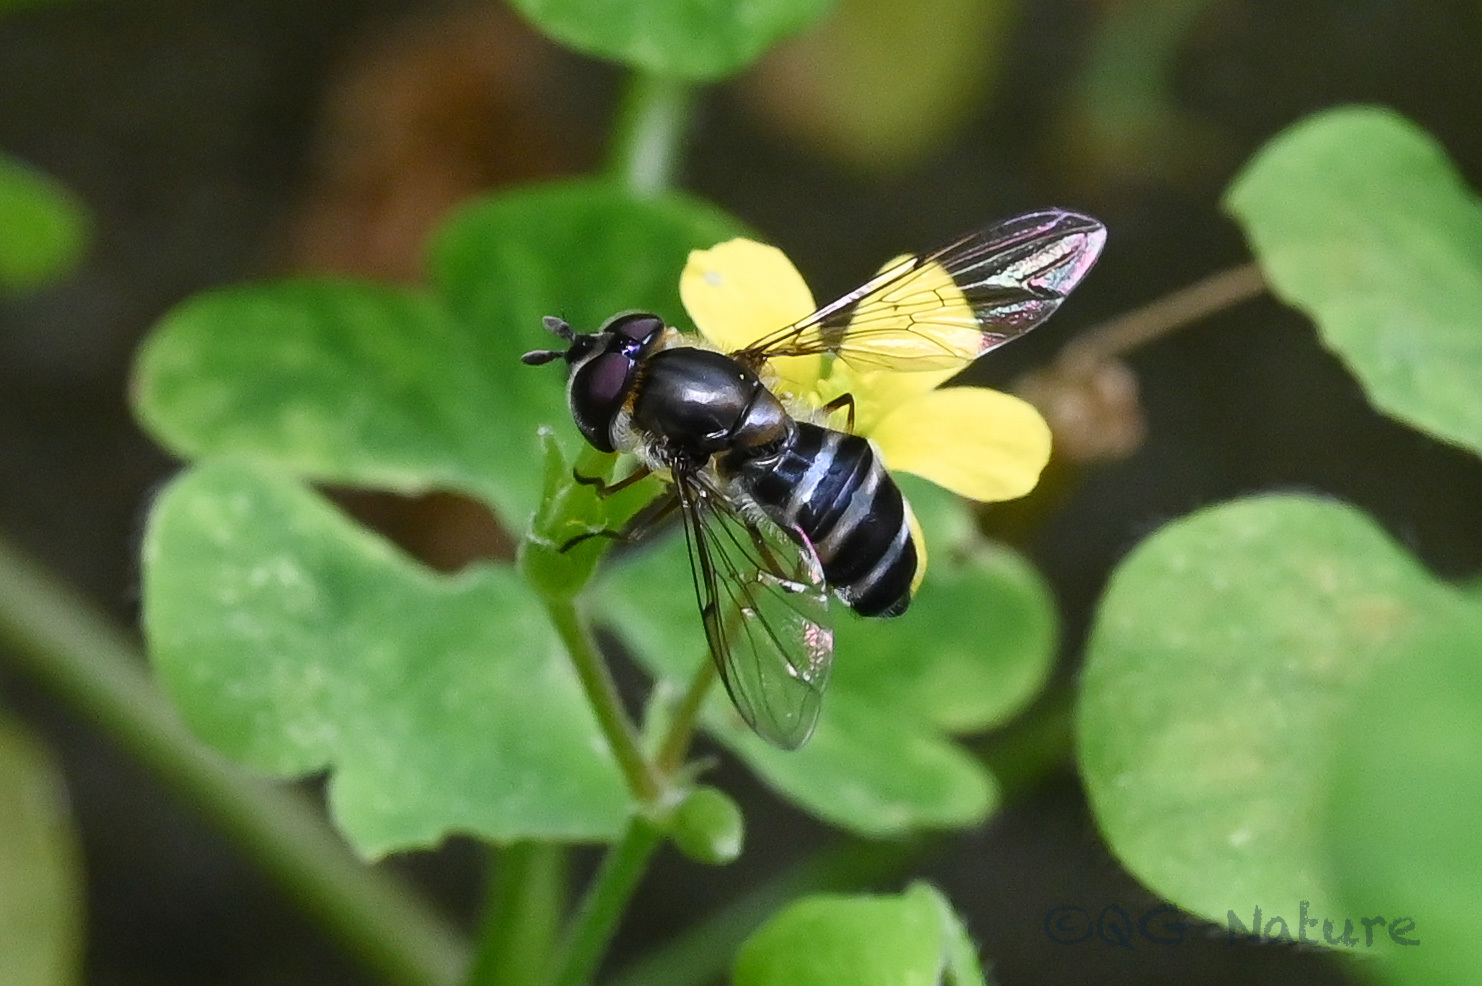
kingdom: Animalia
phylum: Arthropoda
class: Insecta
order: Diptera
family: Syrphidae
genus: Betasyrphus
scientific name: Betasyrphus serarius
